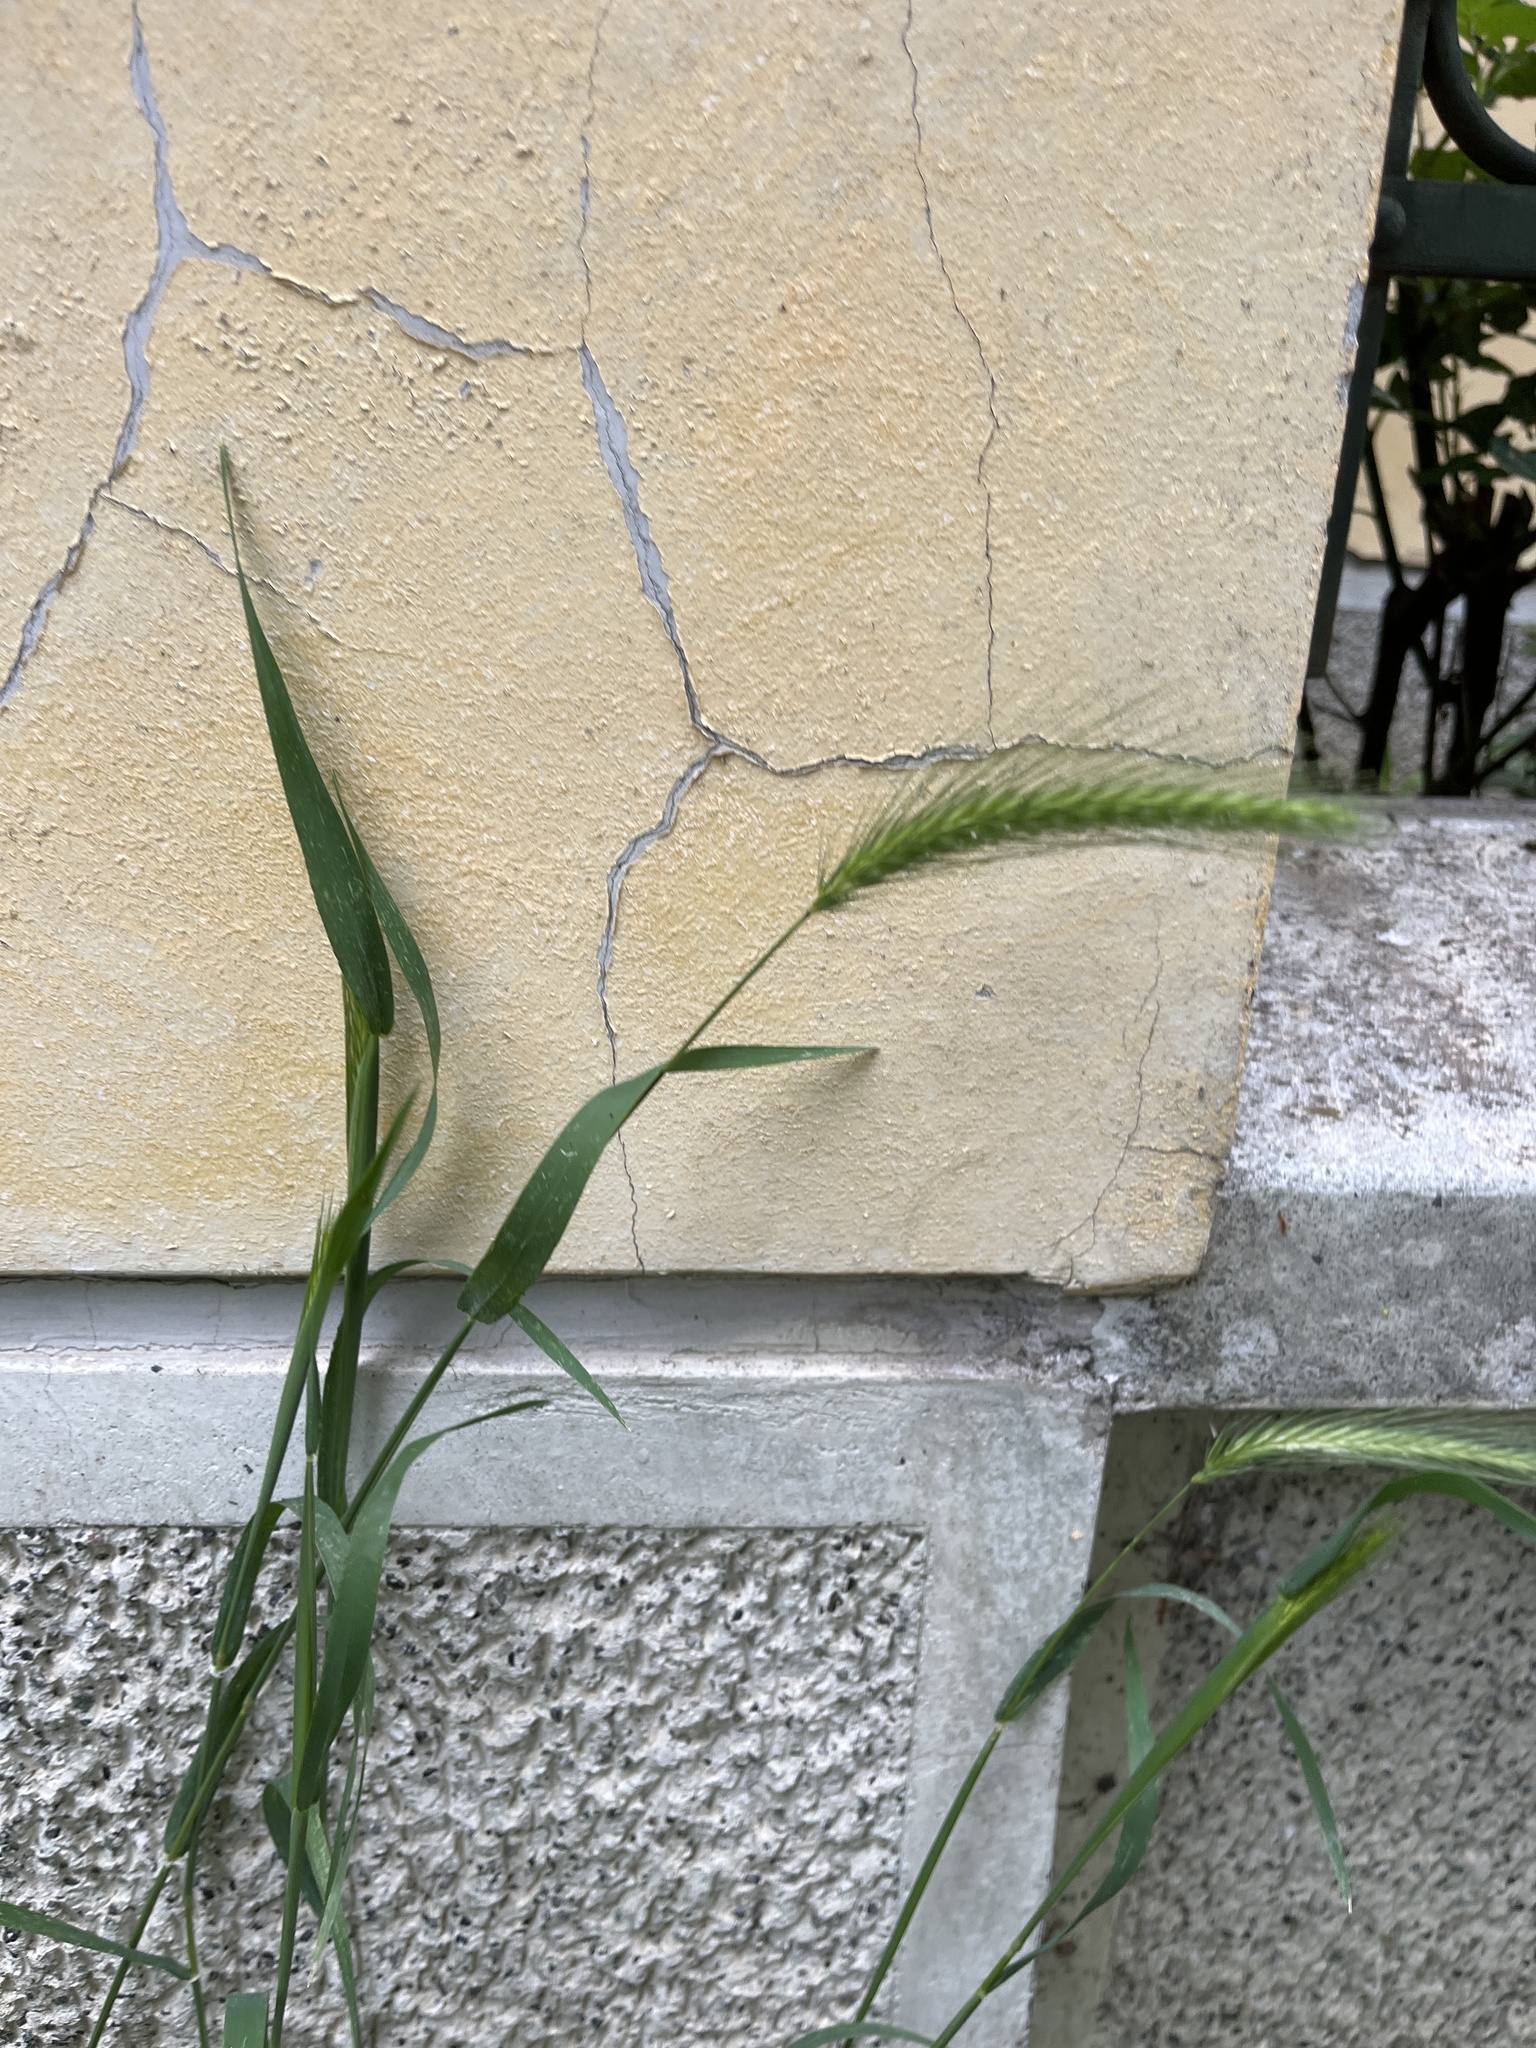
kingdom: Plantae
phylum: Tracheophyta
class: Liliopsida
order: Poales
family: Poaceae
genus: Hordeum
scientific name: Hordeum murinum
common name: Wall barley
